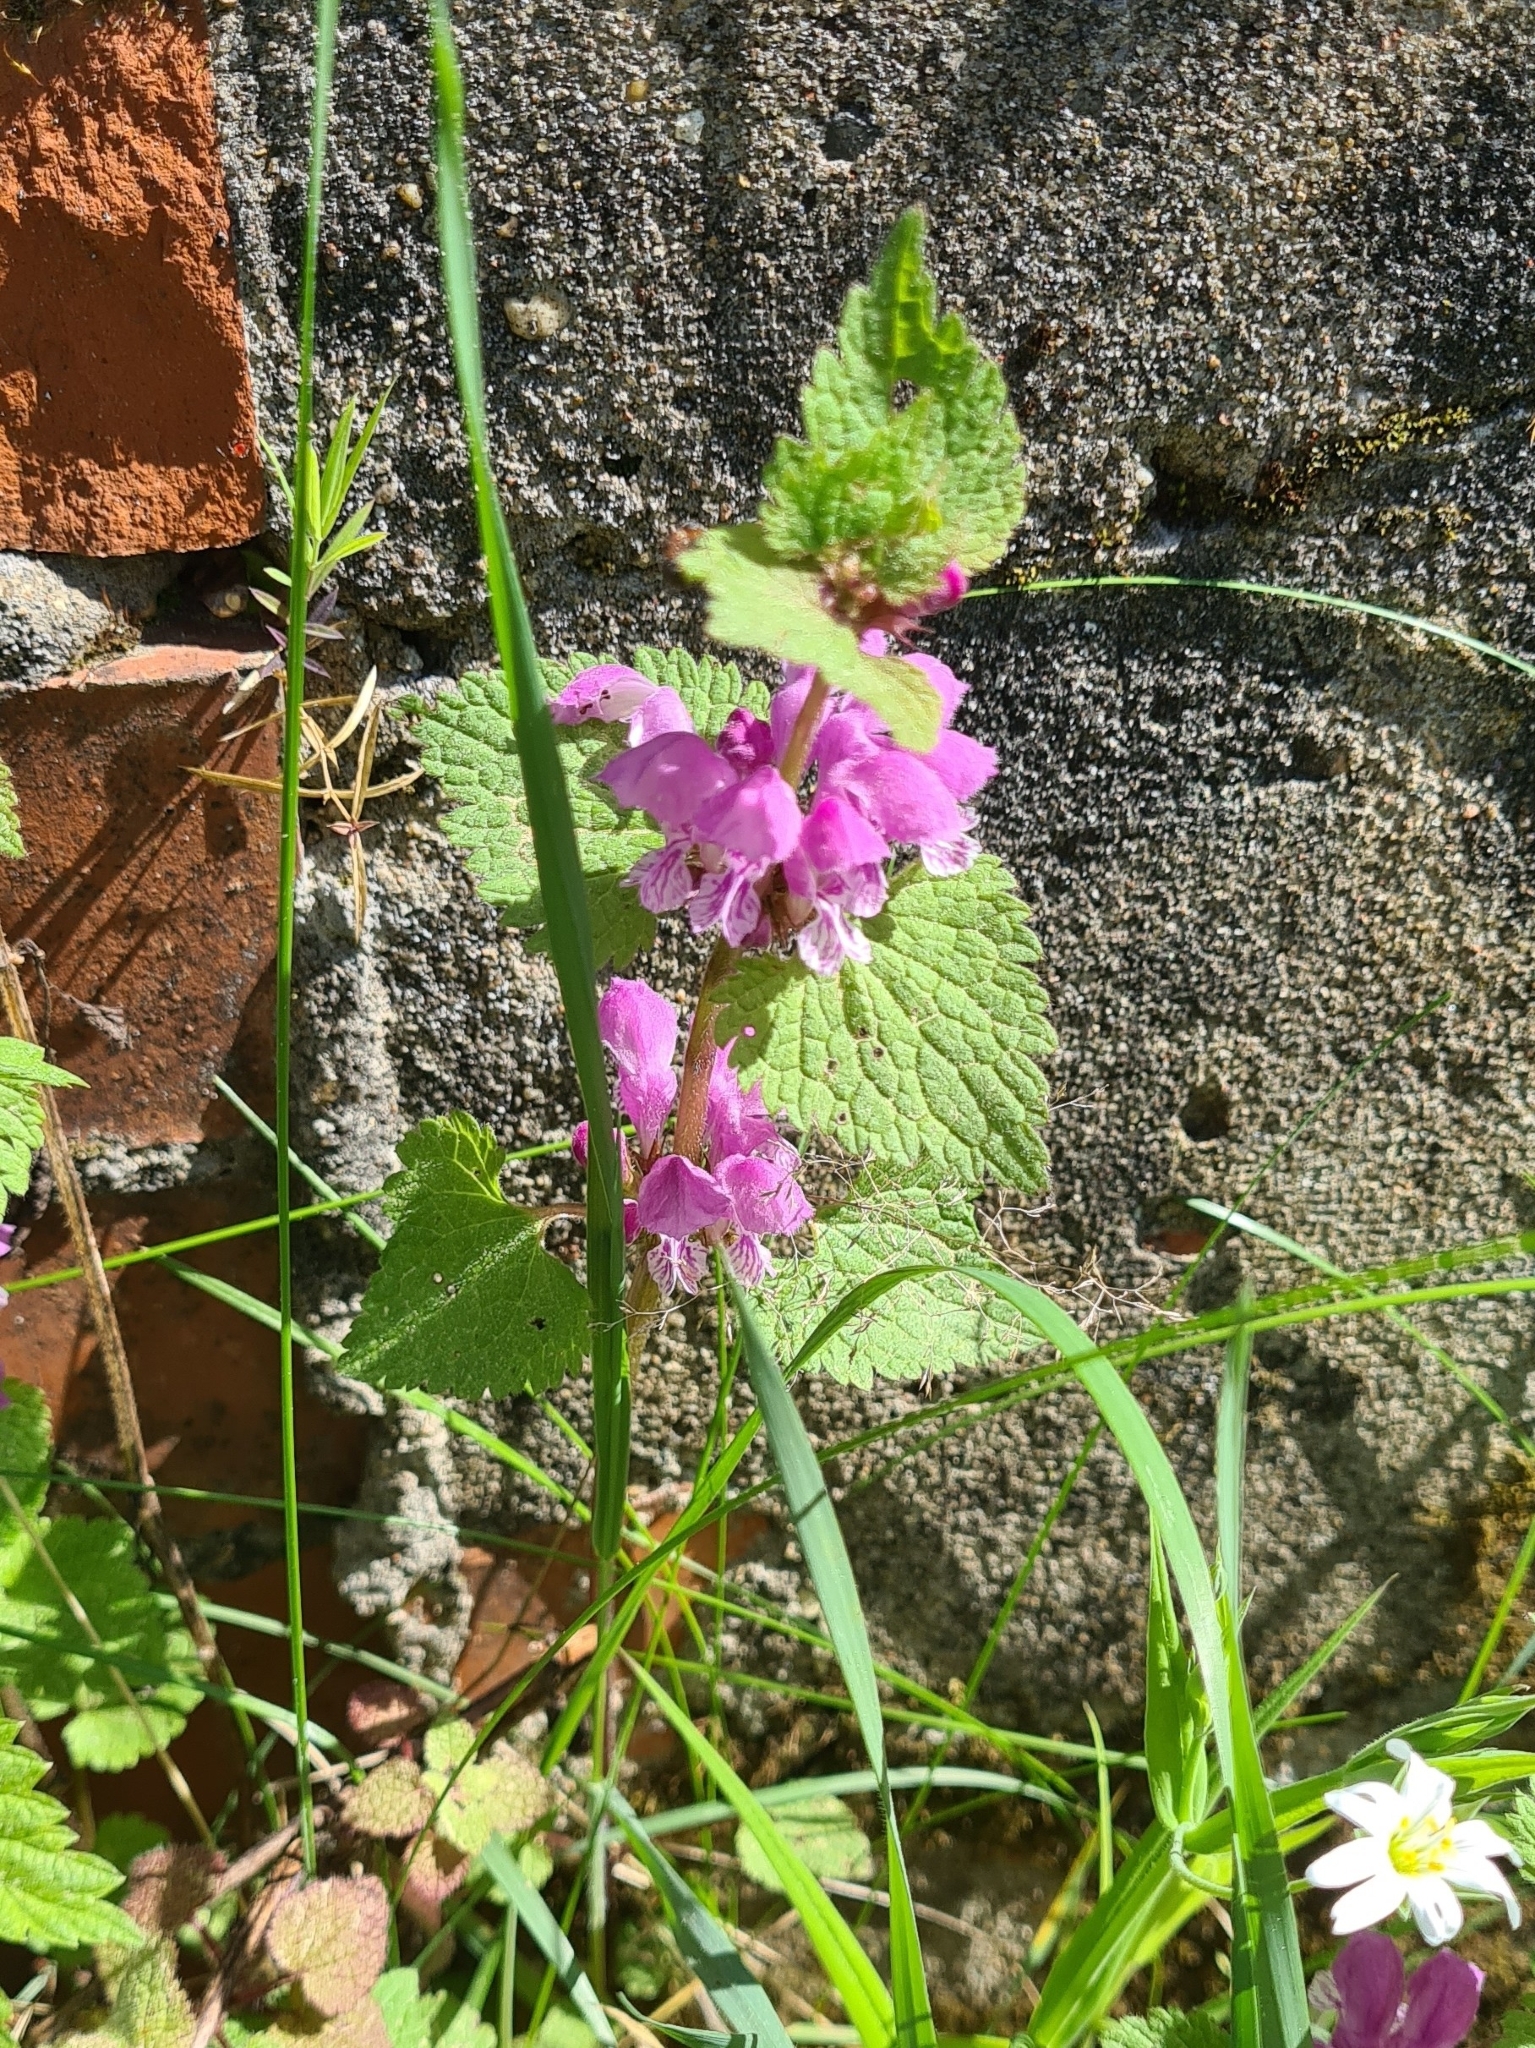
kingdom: Plantae
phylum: Tracheophyta
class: Magnoliopsida
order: Lamiales
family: Lamiaceae
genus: Lamium
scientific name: Lamium maculatum
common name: Spotted dead-nettle
